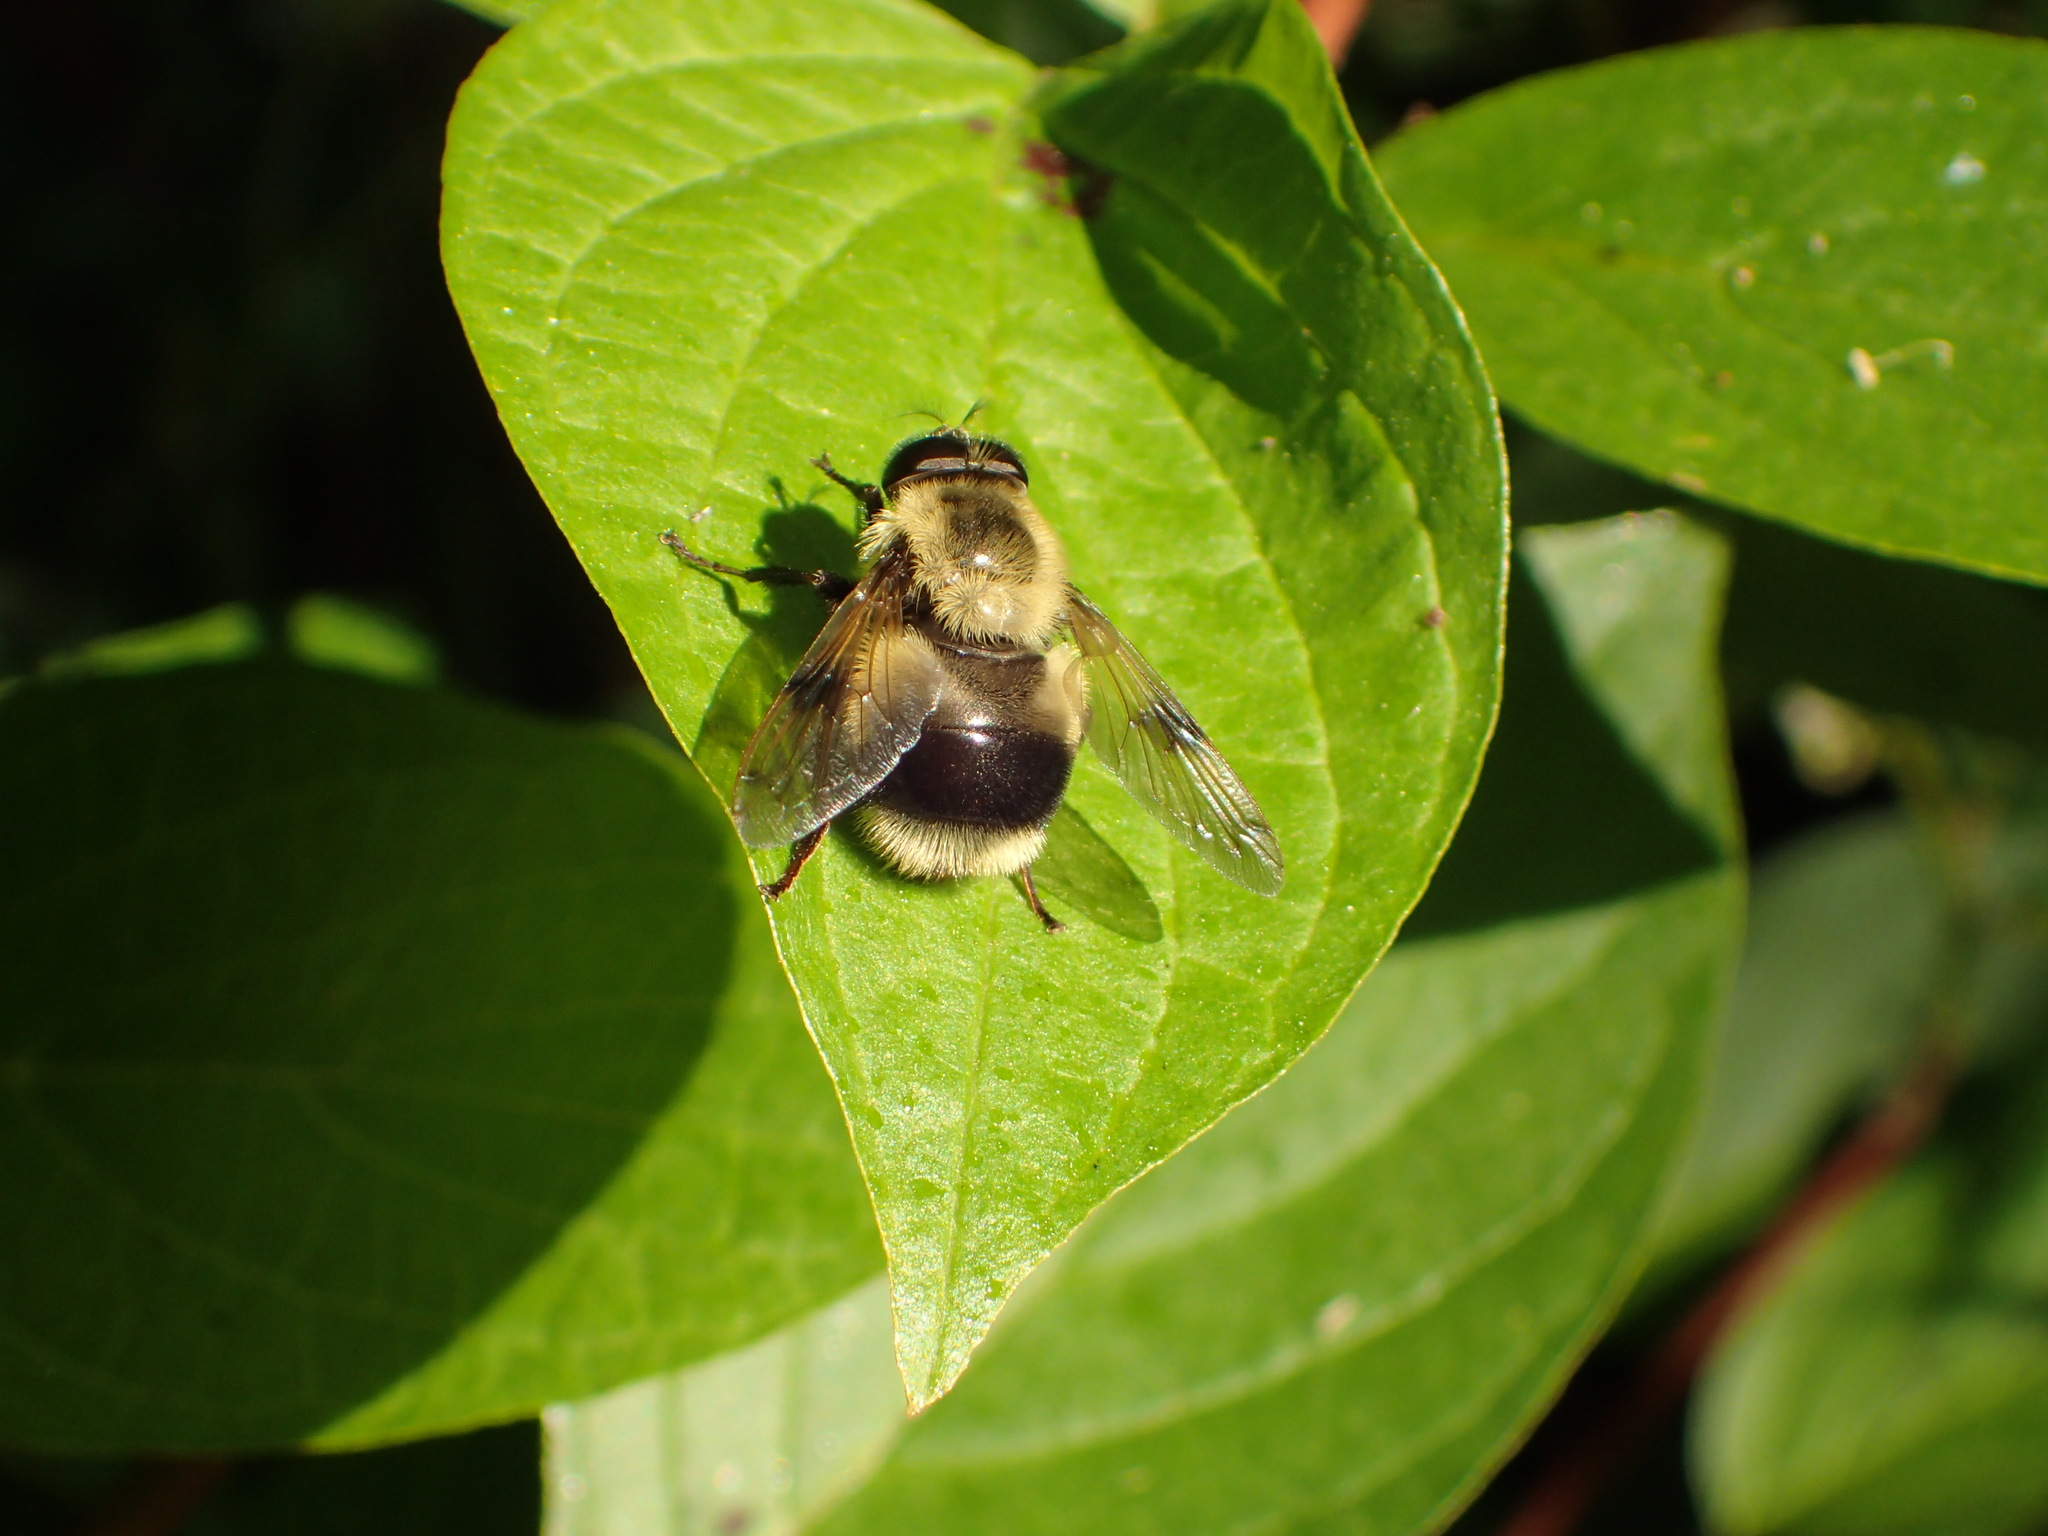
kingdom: Animalia
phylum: Arthropoda
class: Insecta
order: Diptera
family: Syrphidae
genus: Volucella
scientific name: Volucella facialis
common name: Yellow-faced swiftwing
